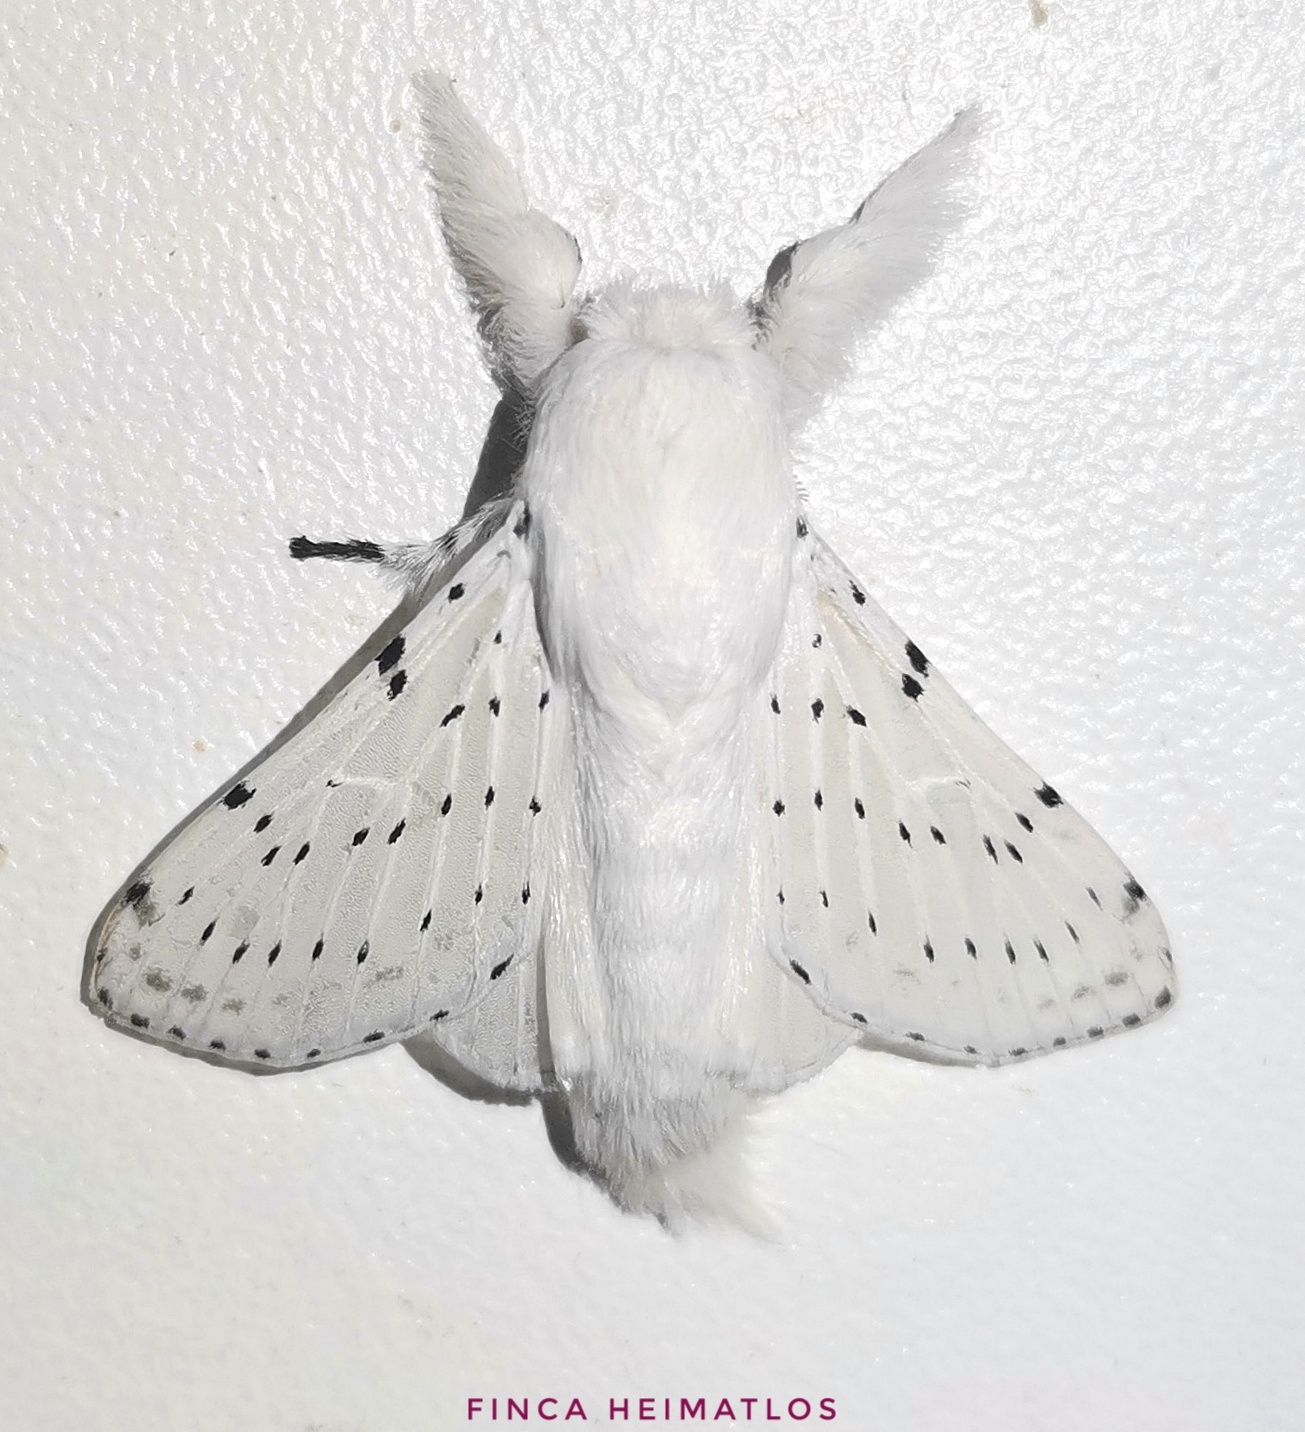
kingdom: Animalia
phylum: Arthropoda
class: Insecta
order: Lepidoptera
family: Lasiocampidae
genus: Artace
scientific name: Artace cribrarius
